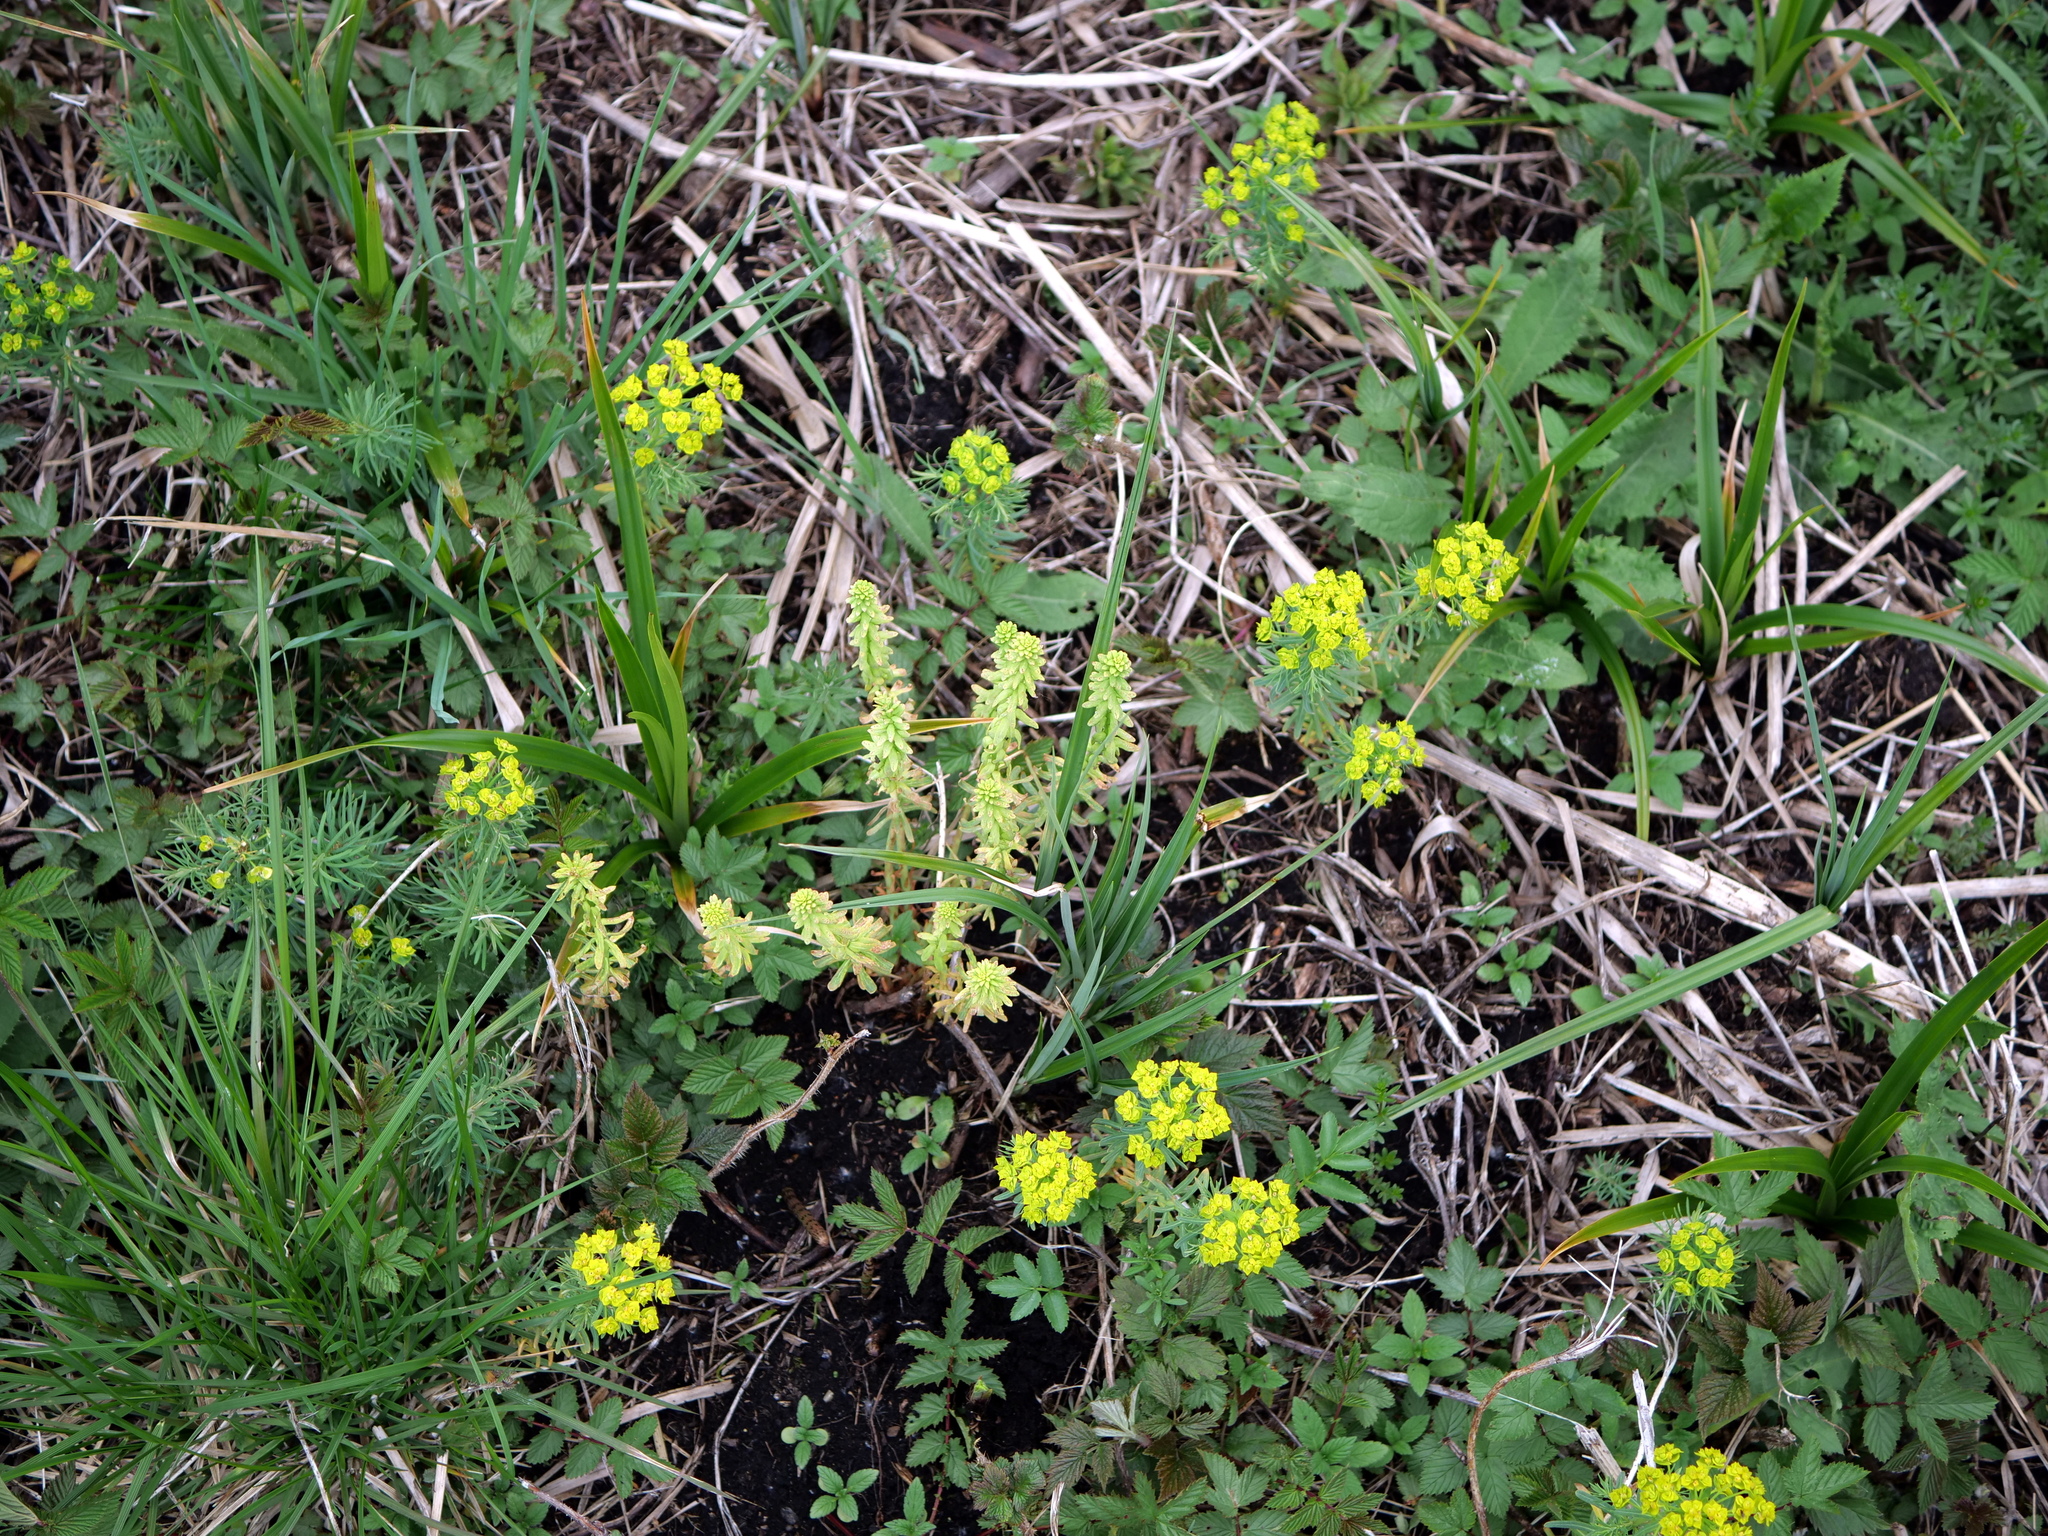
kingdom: Plantae
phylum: Tracheophyta
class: Magnoliopsida
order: Malpighiales
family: Euphorbiaceae
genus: Euphorbia
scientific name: Euphorbia cyparissias
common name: Cypress spurge
